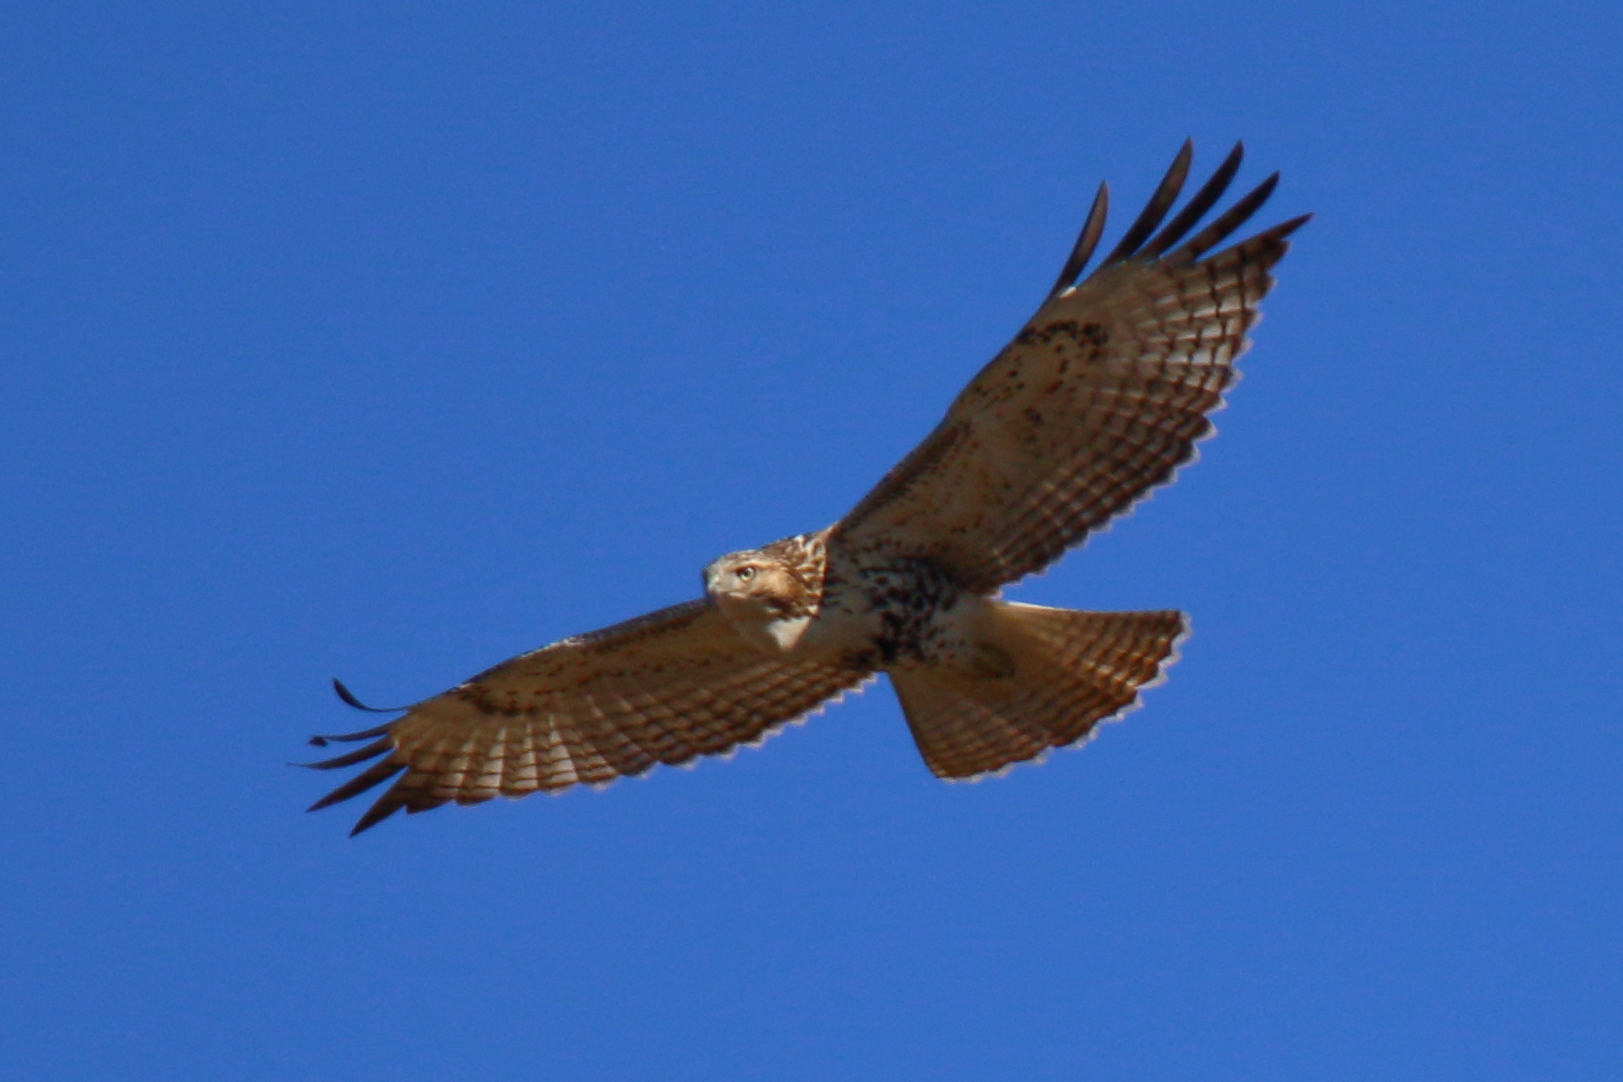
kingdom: Animalia
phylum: Chordata
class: Aves
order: Accipitriformes
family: Accipitridae
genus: Buteo
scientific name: Buteo jamaicensis
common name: Red-tailed hawk
